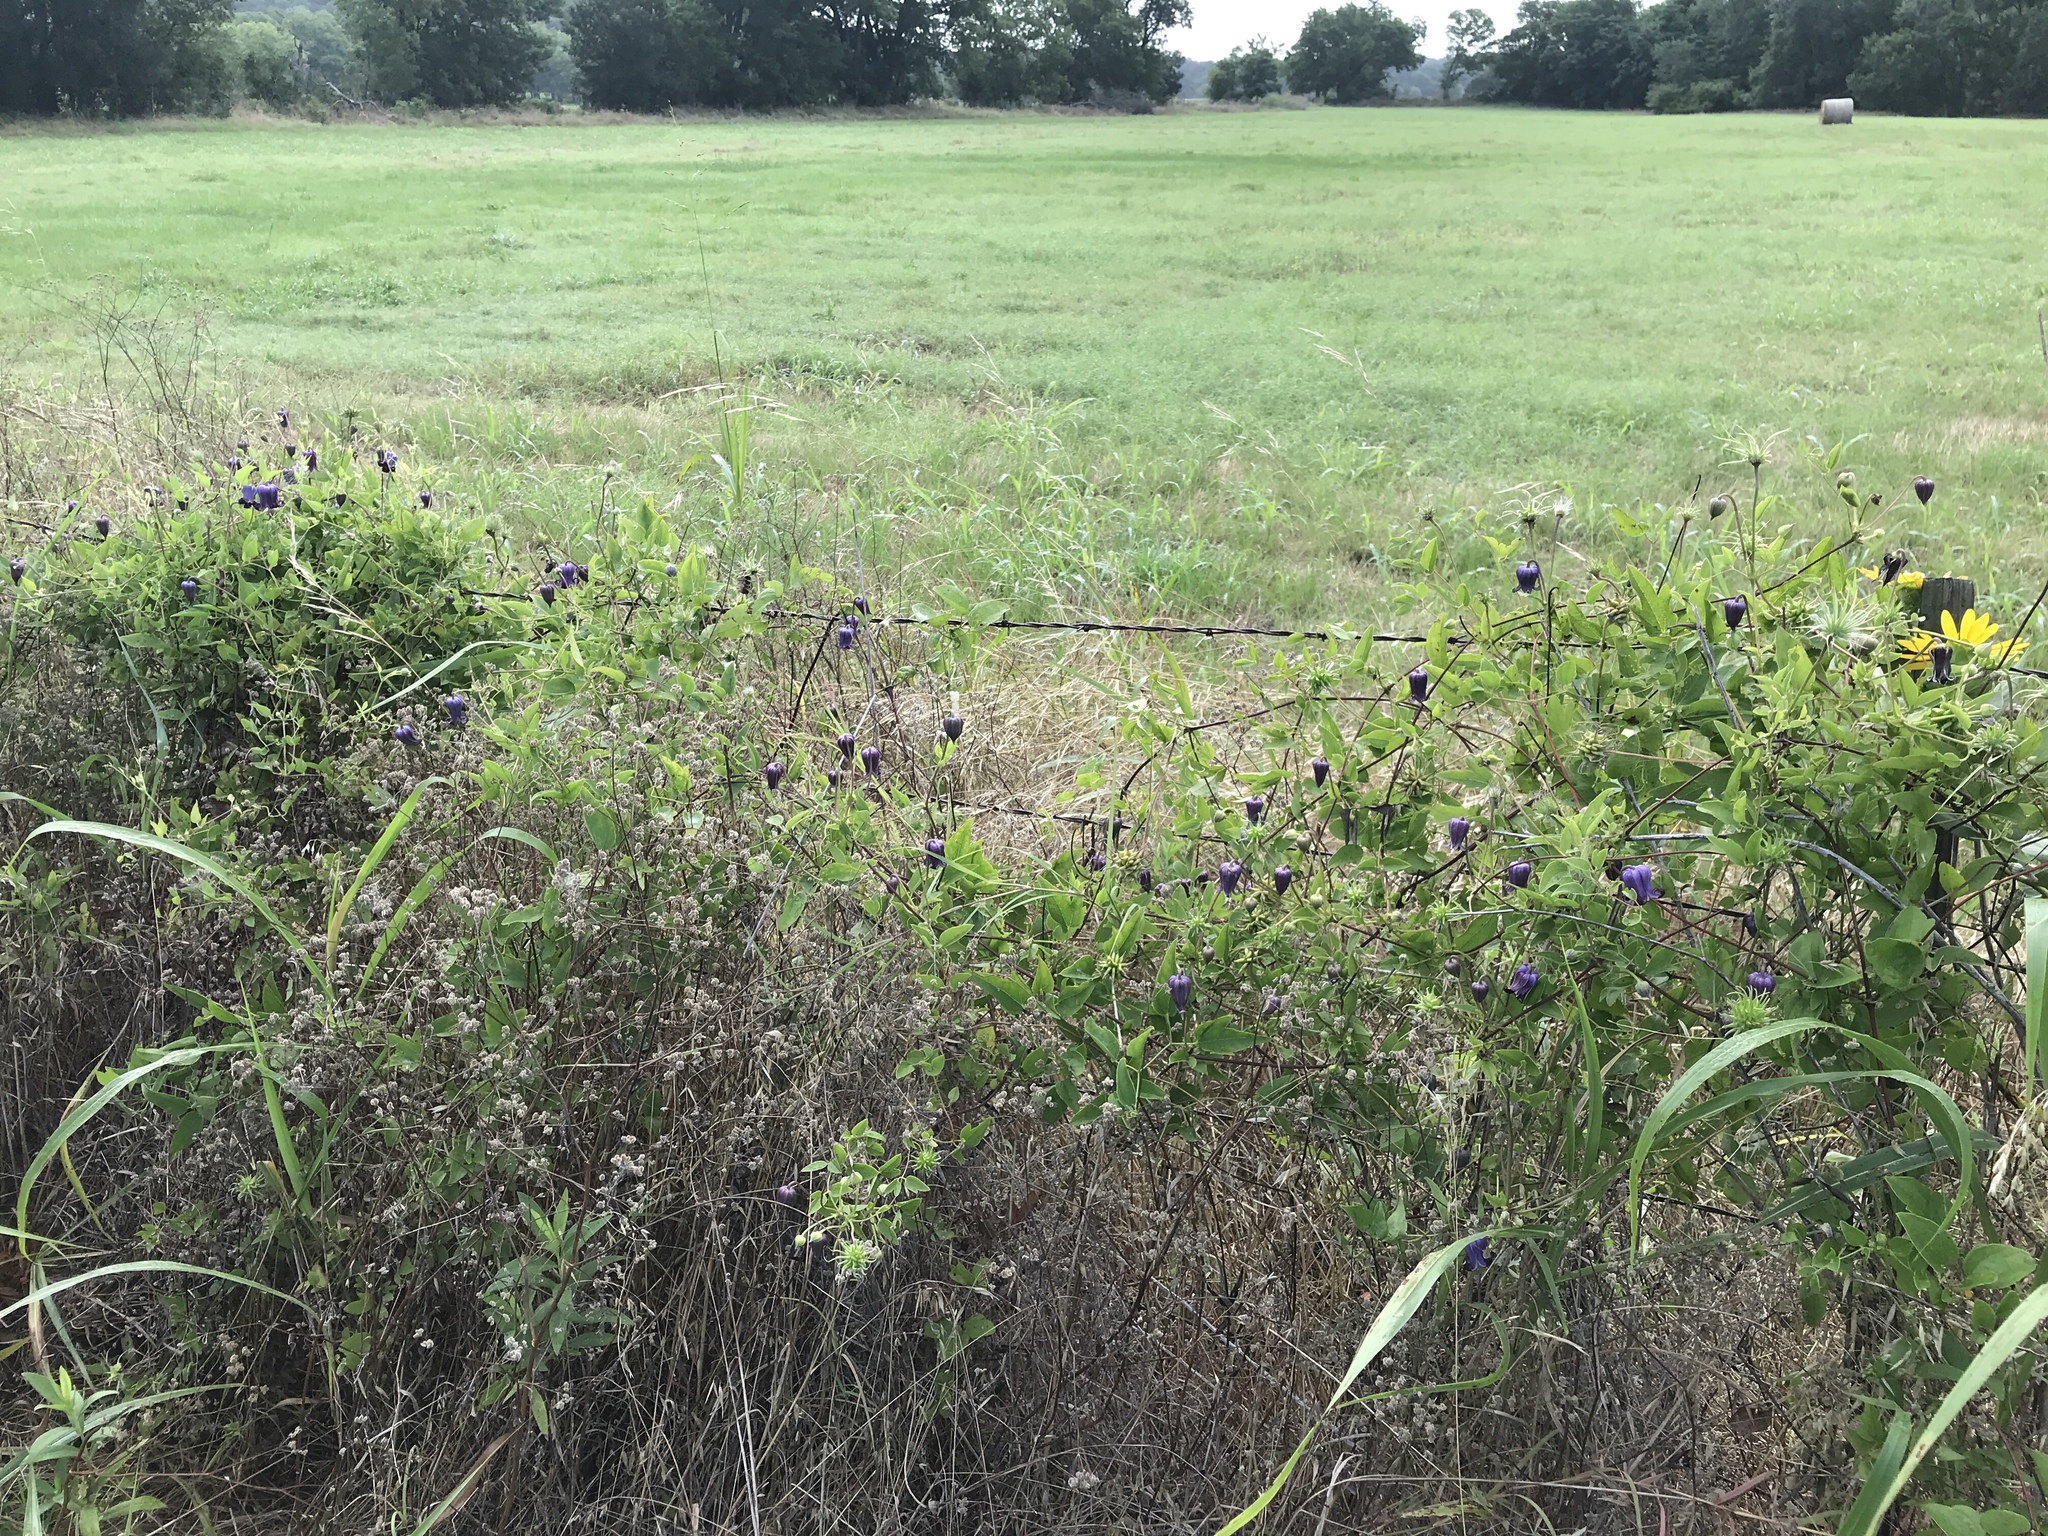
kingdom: Plantae
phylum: Tracheophyta
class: Magnoliopsida
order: Ranunculales
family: Ranunculaceae
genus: Clematis
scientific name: Clematis pitcheri
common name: Bellflower clematis
